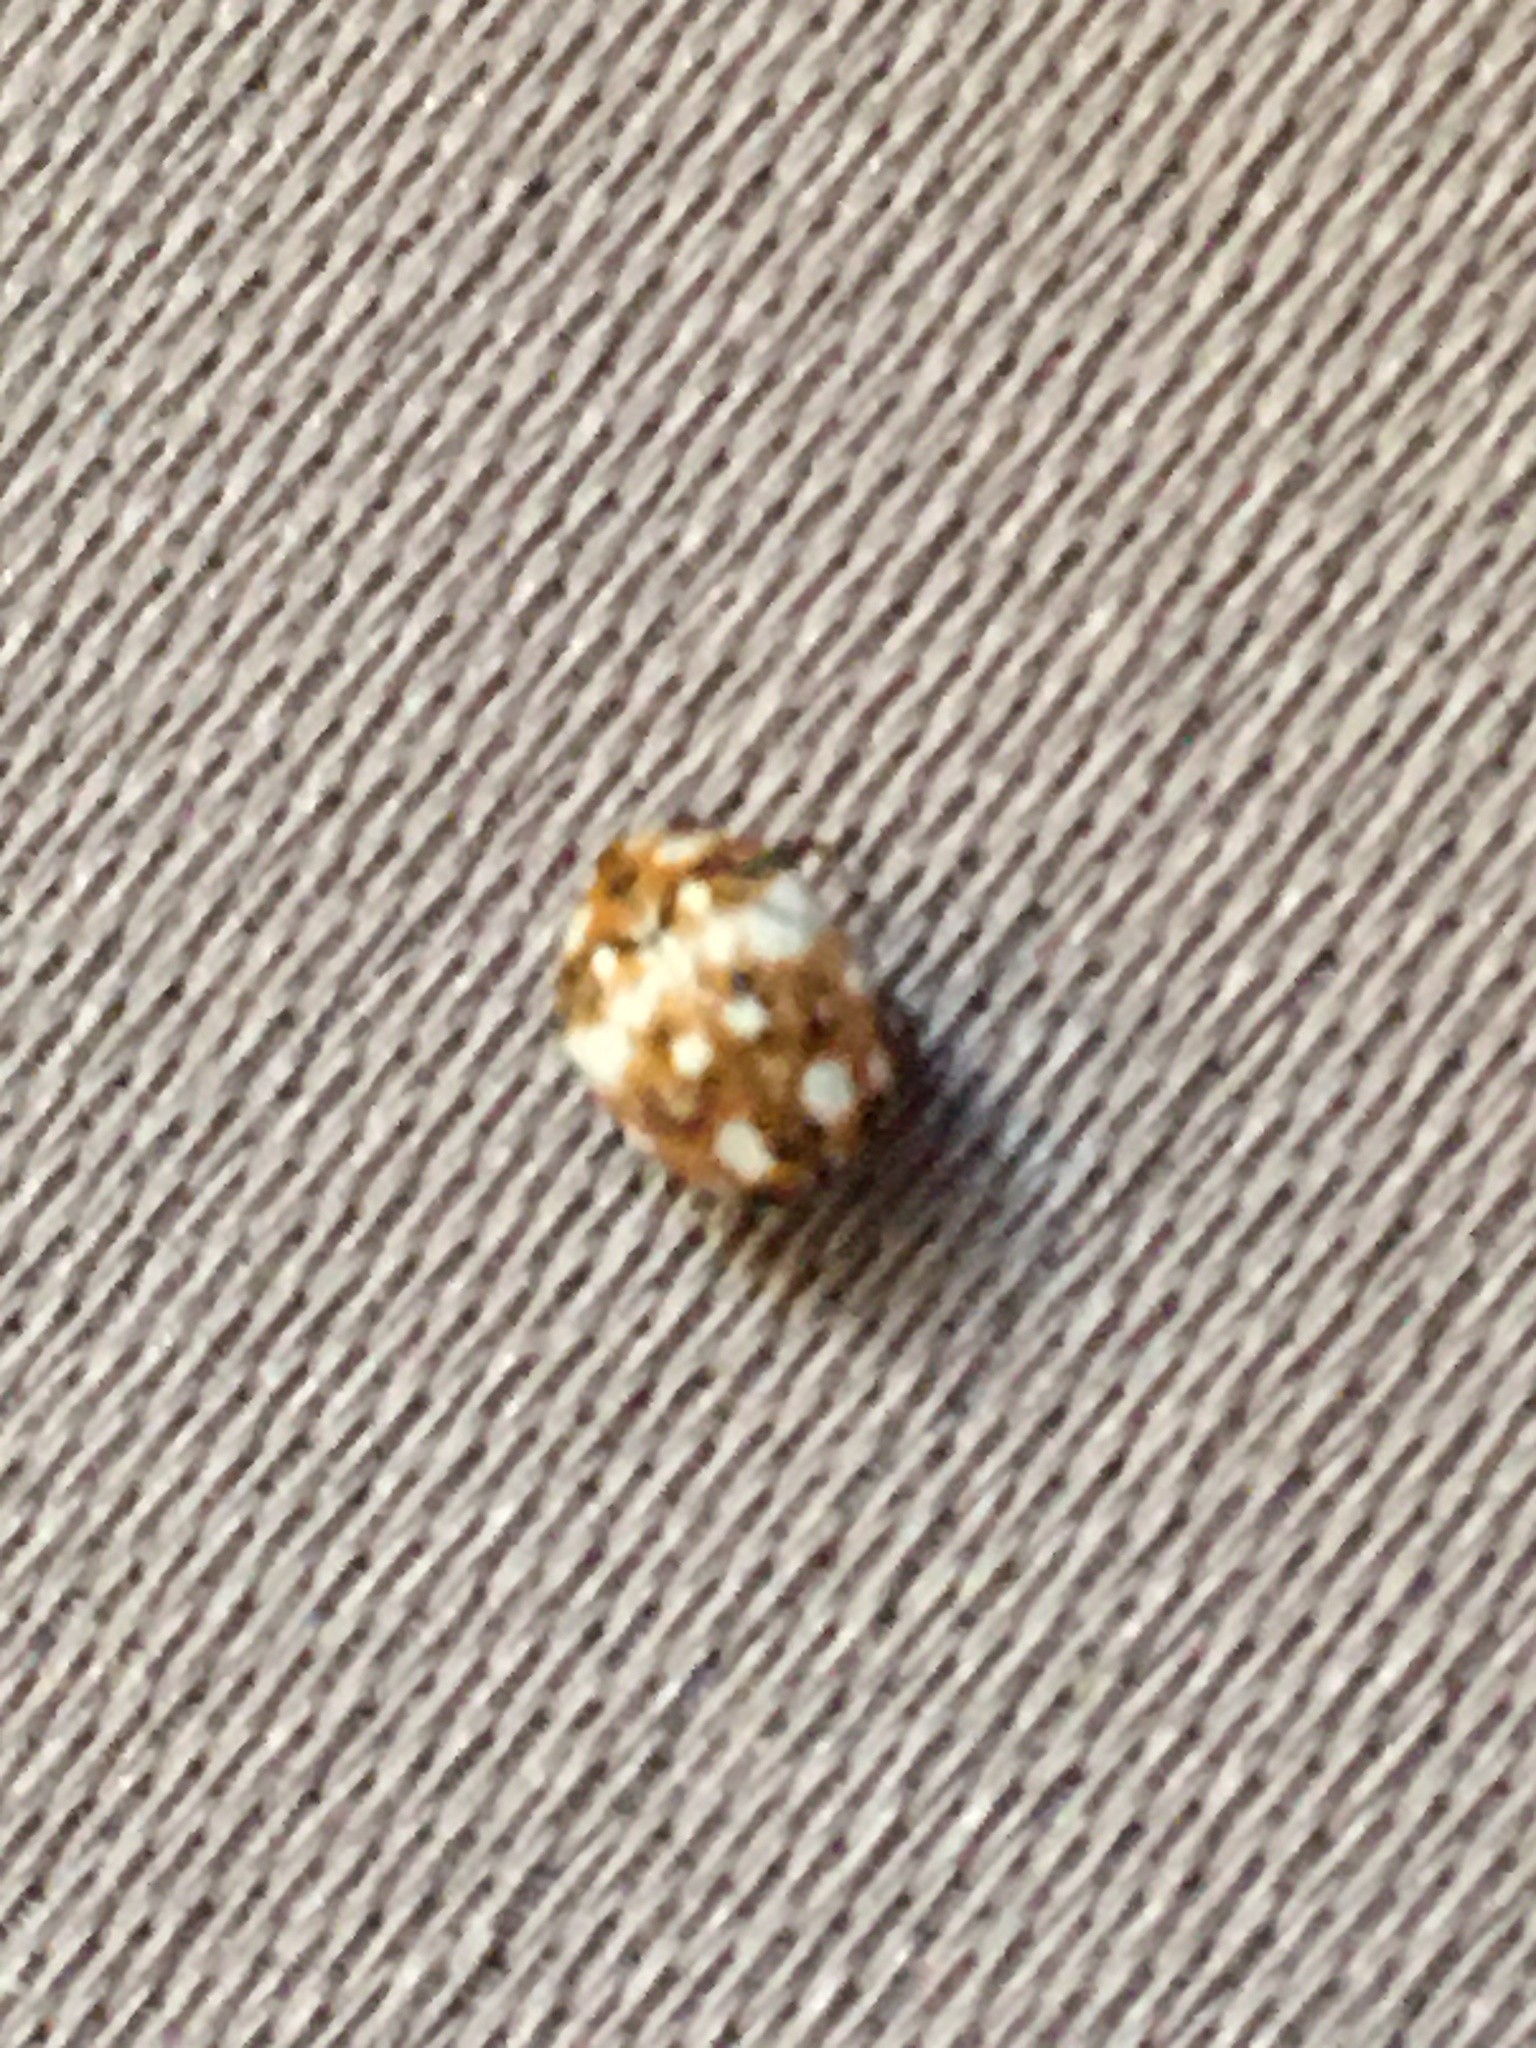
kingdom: Animalia
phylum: Arthropoda
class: Insecta
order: Coleoptera
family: Dermestidae
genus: Anthrenus
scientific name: Anthrenus flavipes
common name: Furniture carpet beetle
